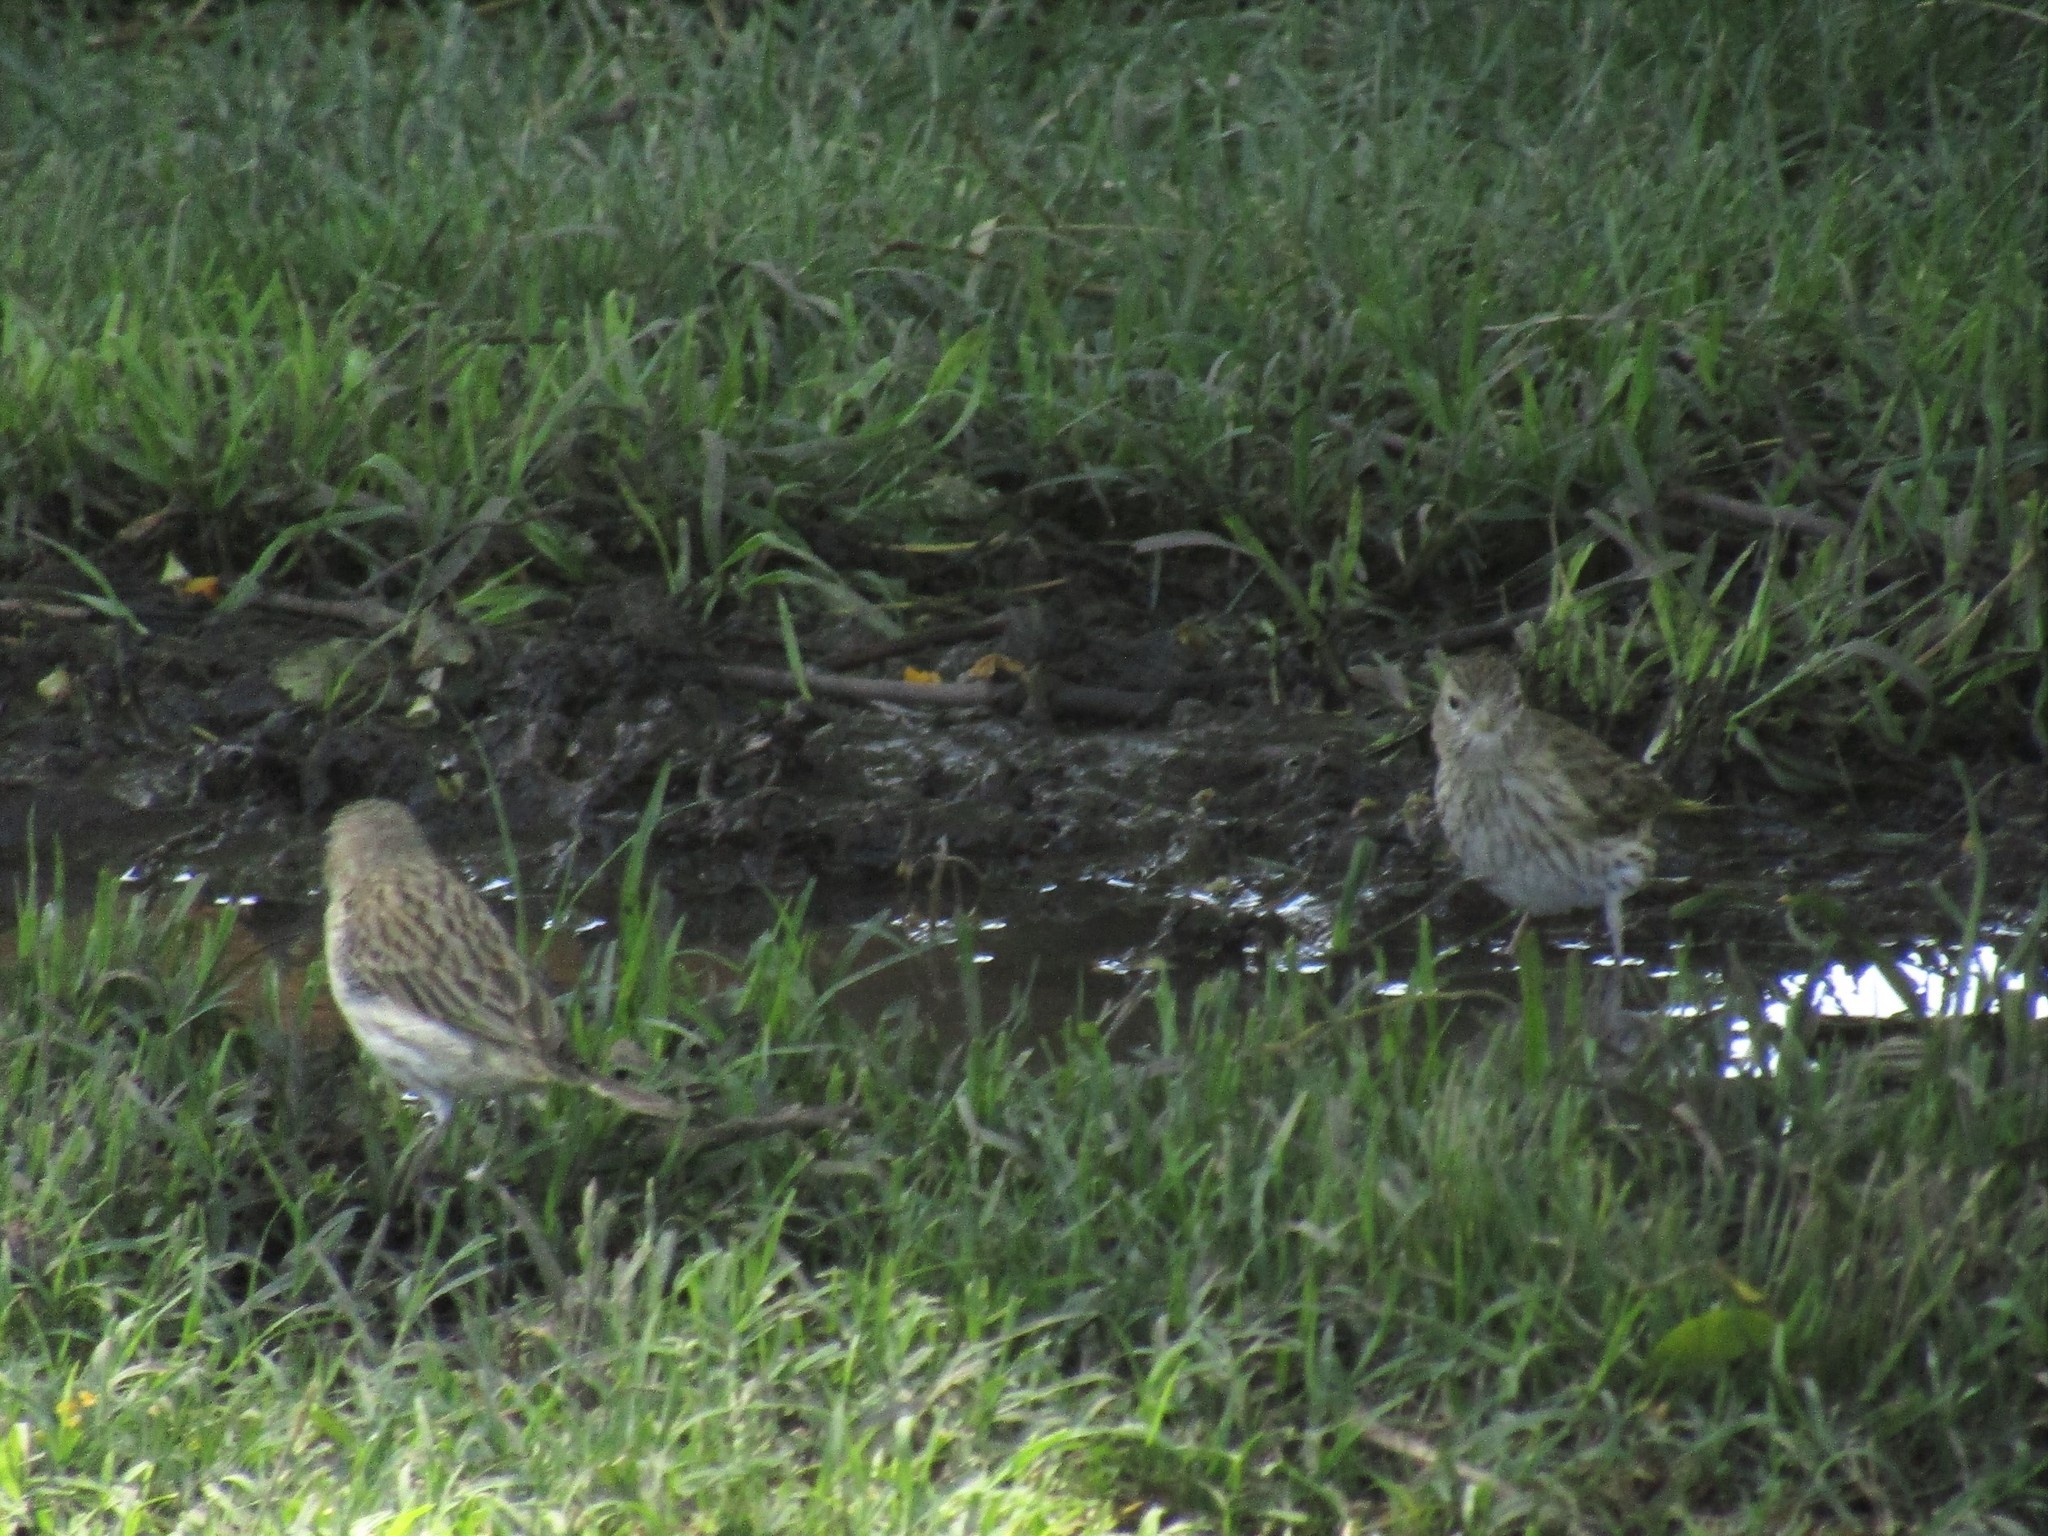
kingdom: Animalia
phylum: Chordata
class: Aves
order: Passeriformes
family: Thraupidae
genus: Sicalis
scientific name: Sicalis flaveola
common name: Saffron finch
